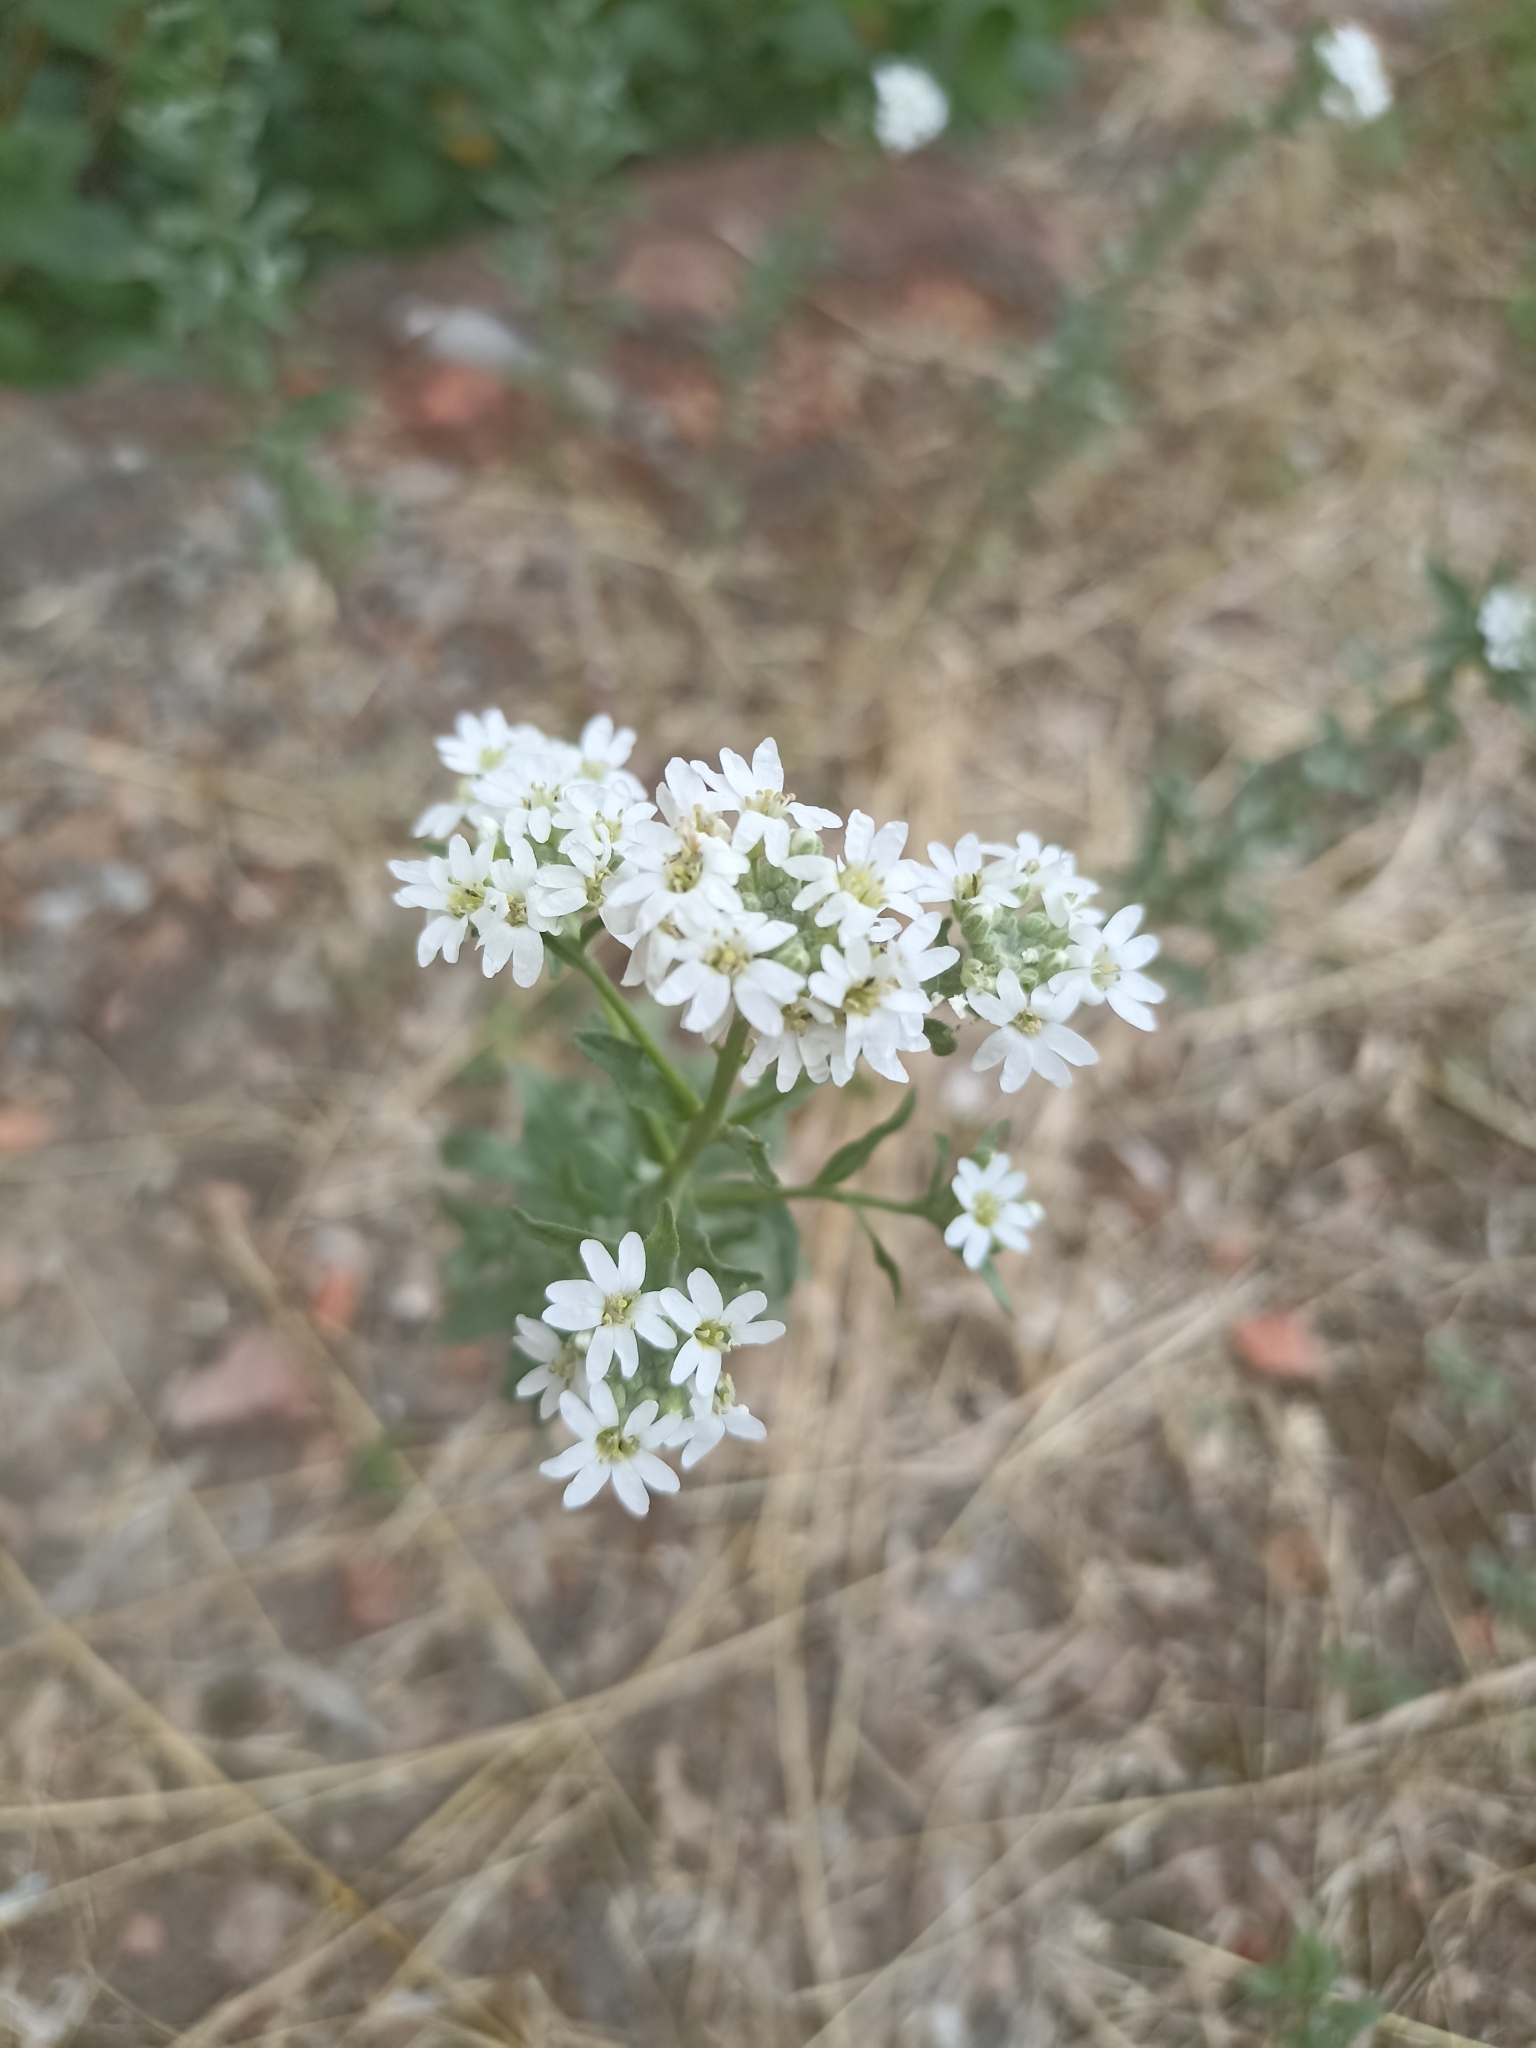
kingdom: Plantae
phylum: Tracheophyta
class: Magnoliopsida
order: Brassicales
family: Brassicaceae
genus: Berteroa
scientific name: Berteroa incana
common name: Hoary alison
